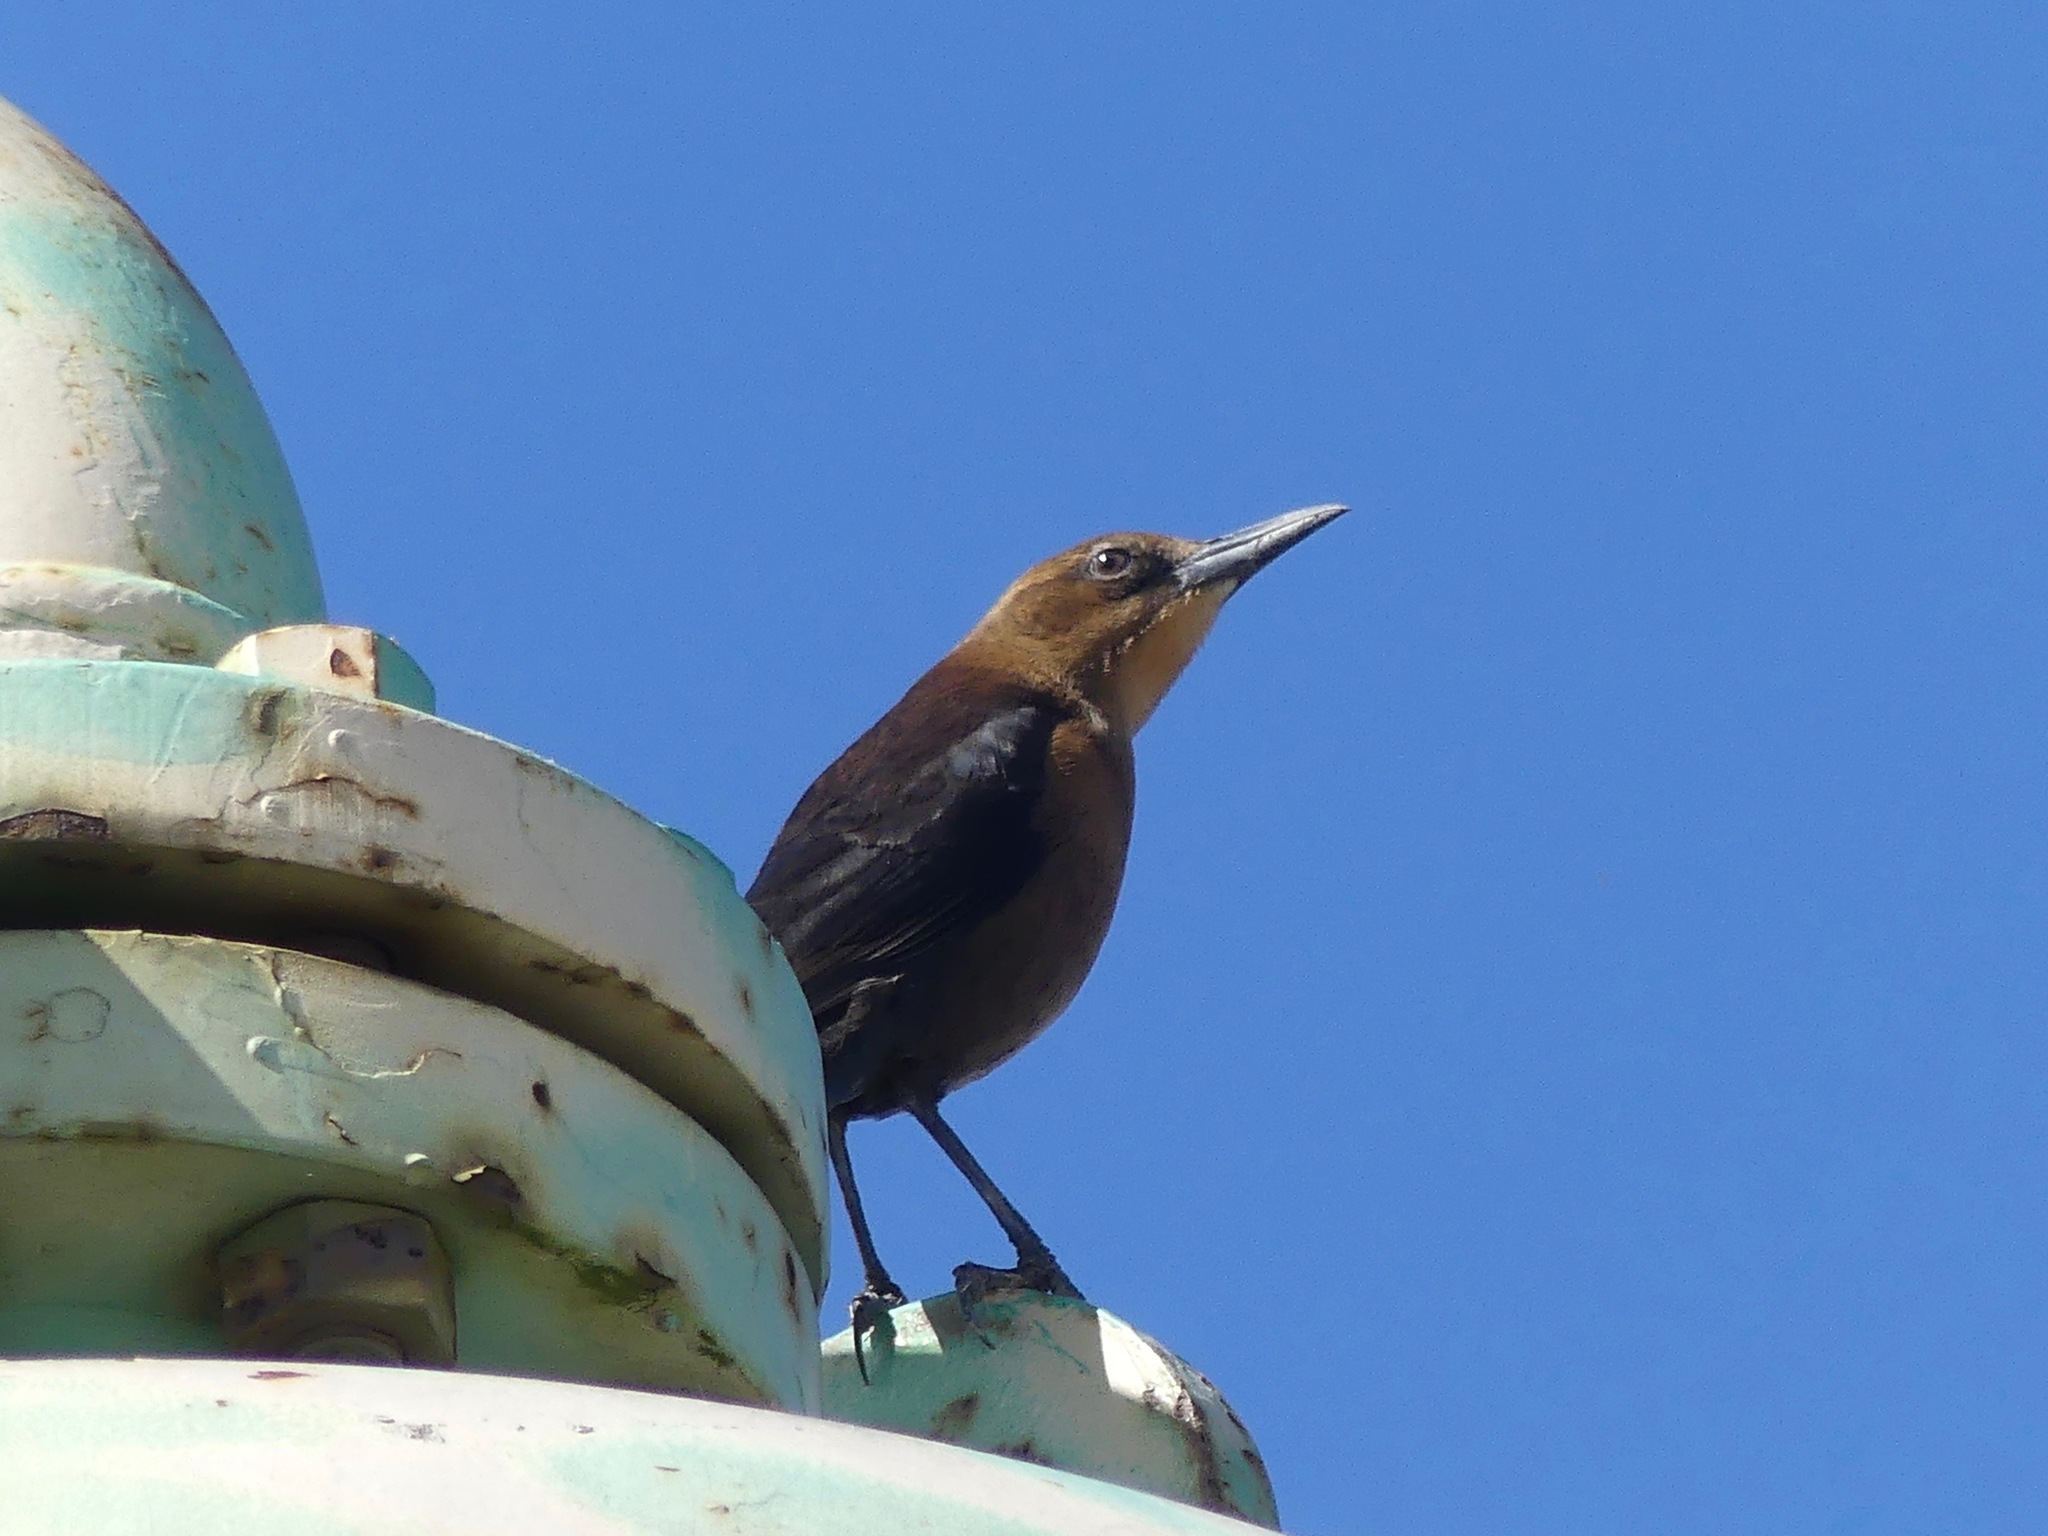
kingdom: Animalia
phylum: Chordata
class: Aves
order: Passeriformes
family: Icteridae
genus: Quiscalus
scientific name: Quiscalus major
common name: Boat-tailed grackle
